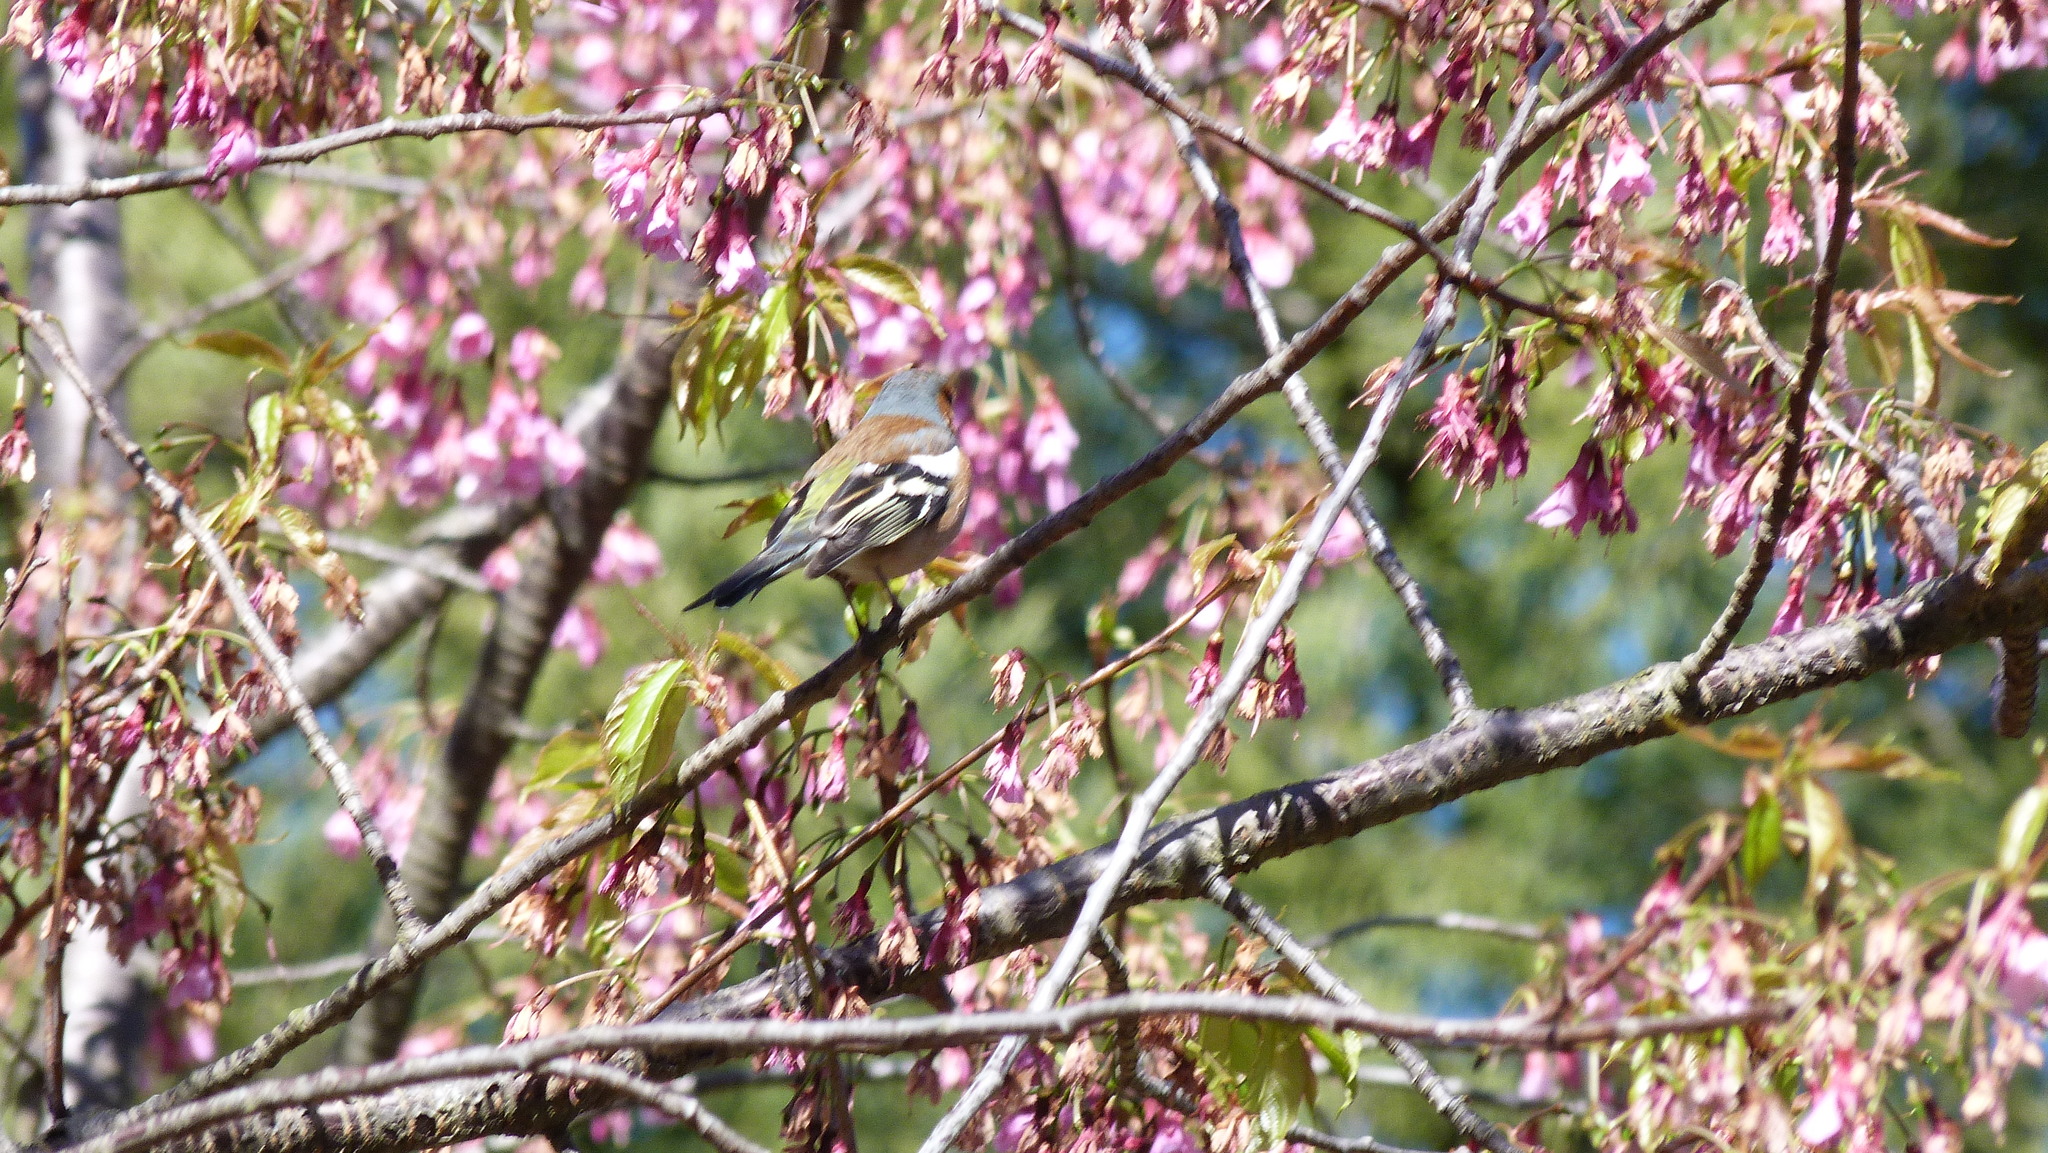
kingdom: Animalia
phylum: Chordata
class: Aves
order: Passeriformes
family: Fringillidae
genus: Fringilla
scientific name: Fringilla coelebs
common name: Common chaffinch
